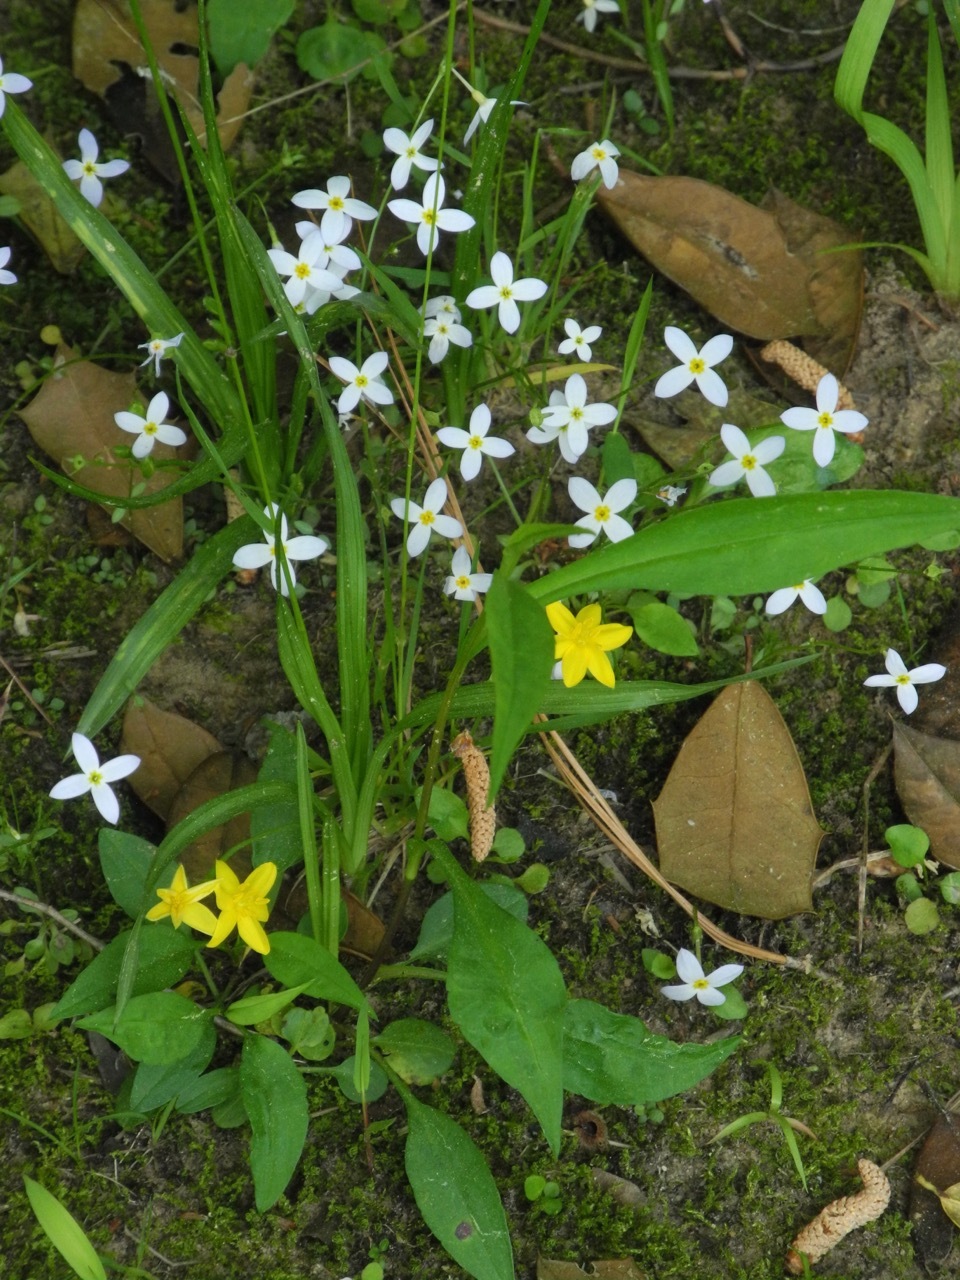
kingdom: Plantae
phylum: Tracheophyta
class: Magnoliopsida
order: Gentianales
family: Rubiaceae
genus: Houstonia
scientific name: Houstonia caerulea
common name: Bluets
